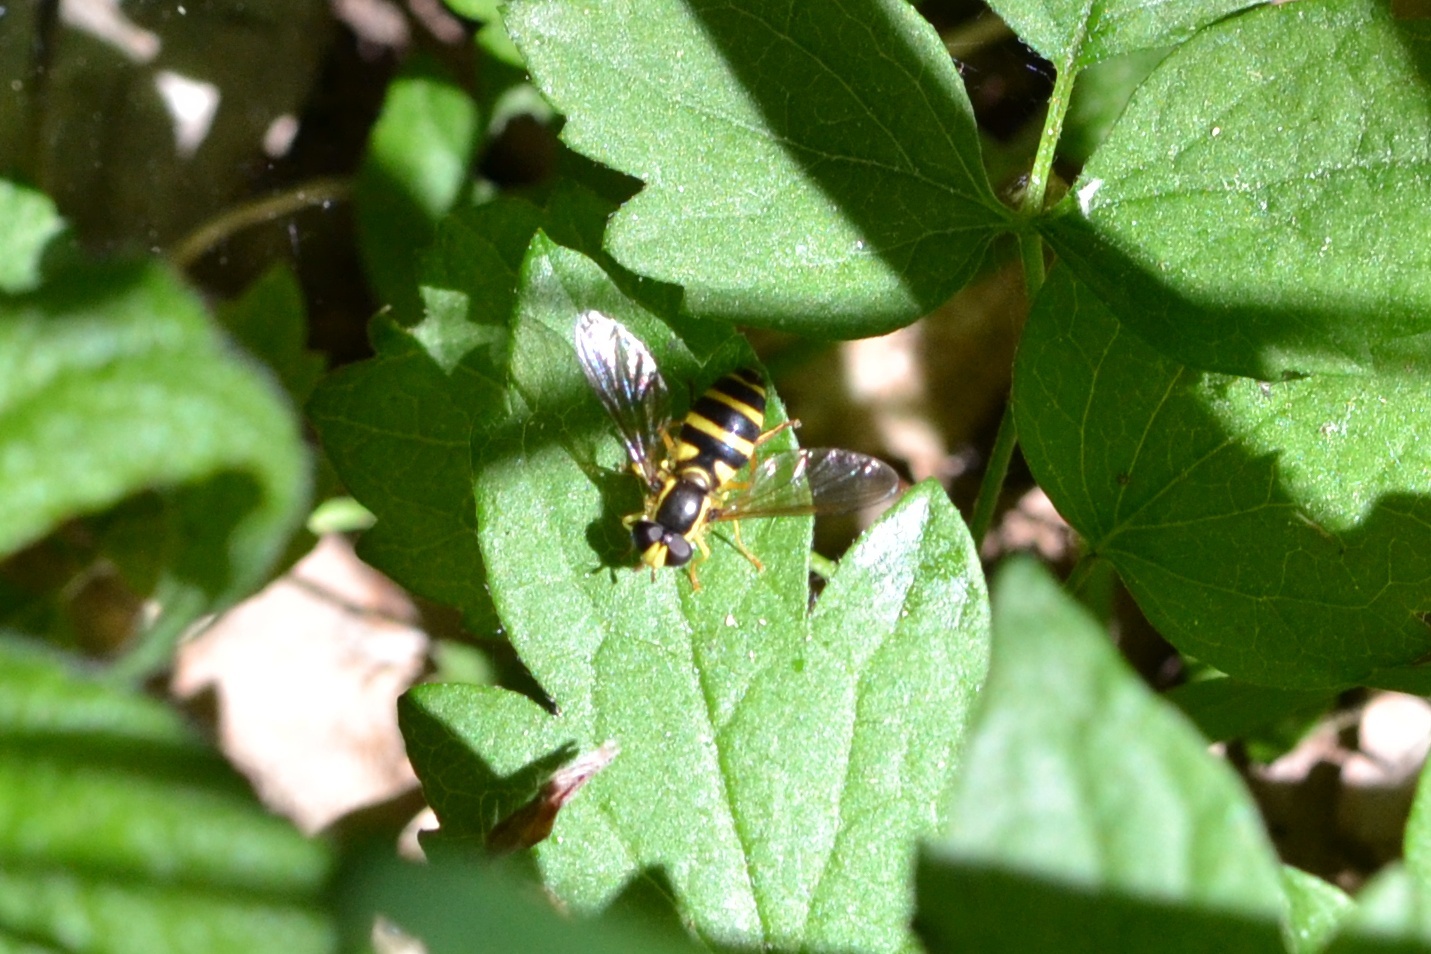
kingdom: Animalia
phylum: Arthropoda
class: Insecta
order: Diptera
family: Syrphidae
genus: Philhelius
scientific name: Philhelius laetus
